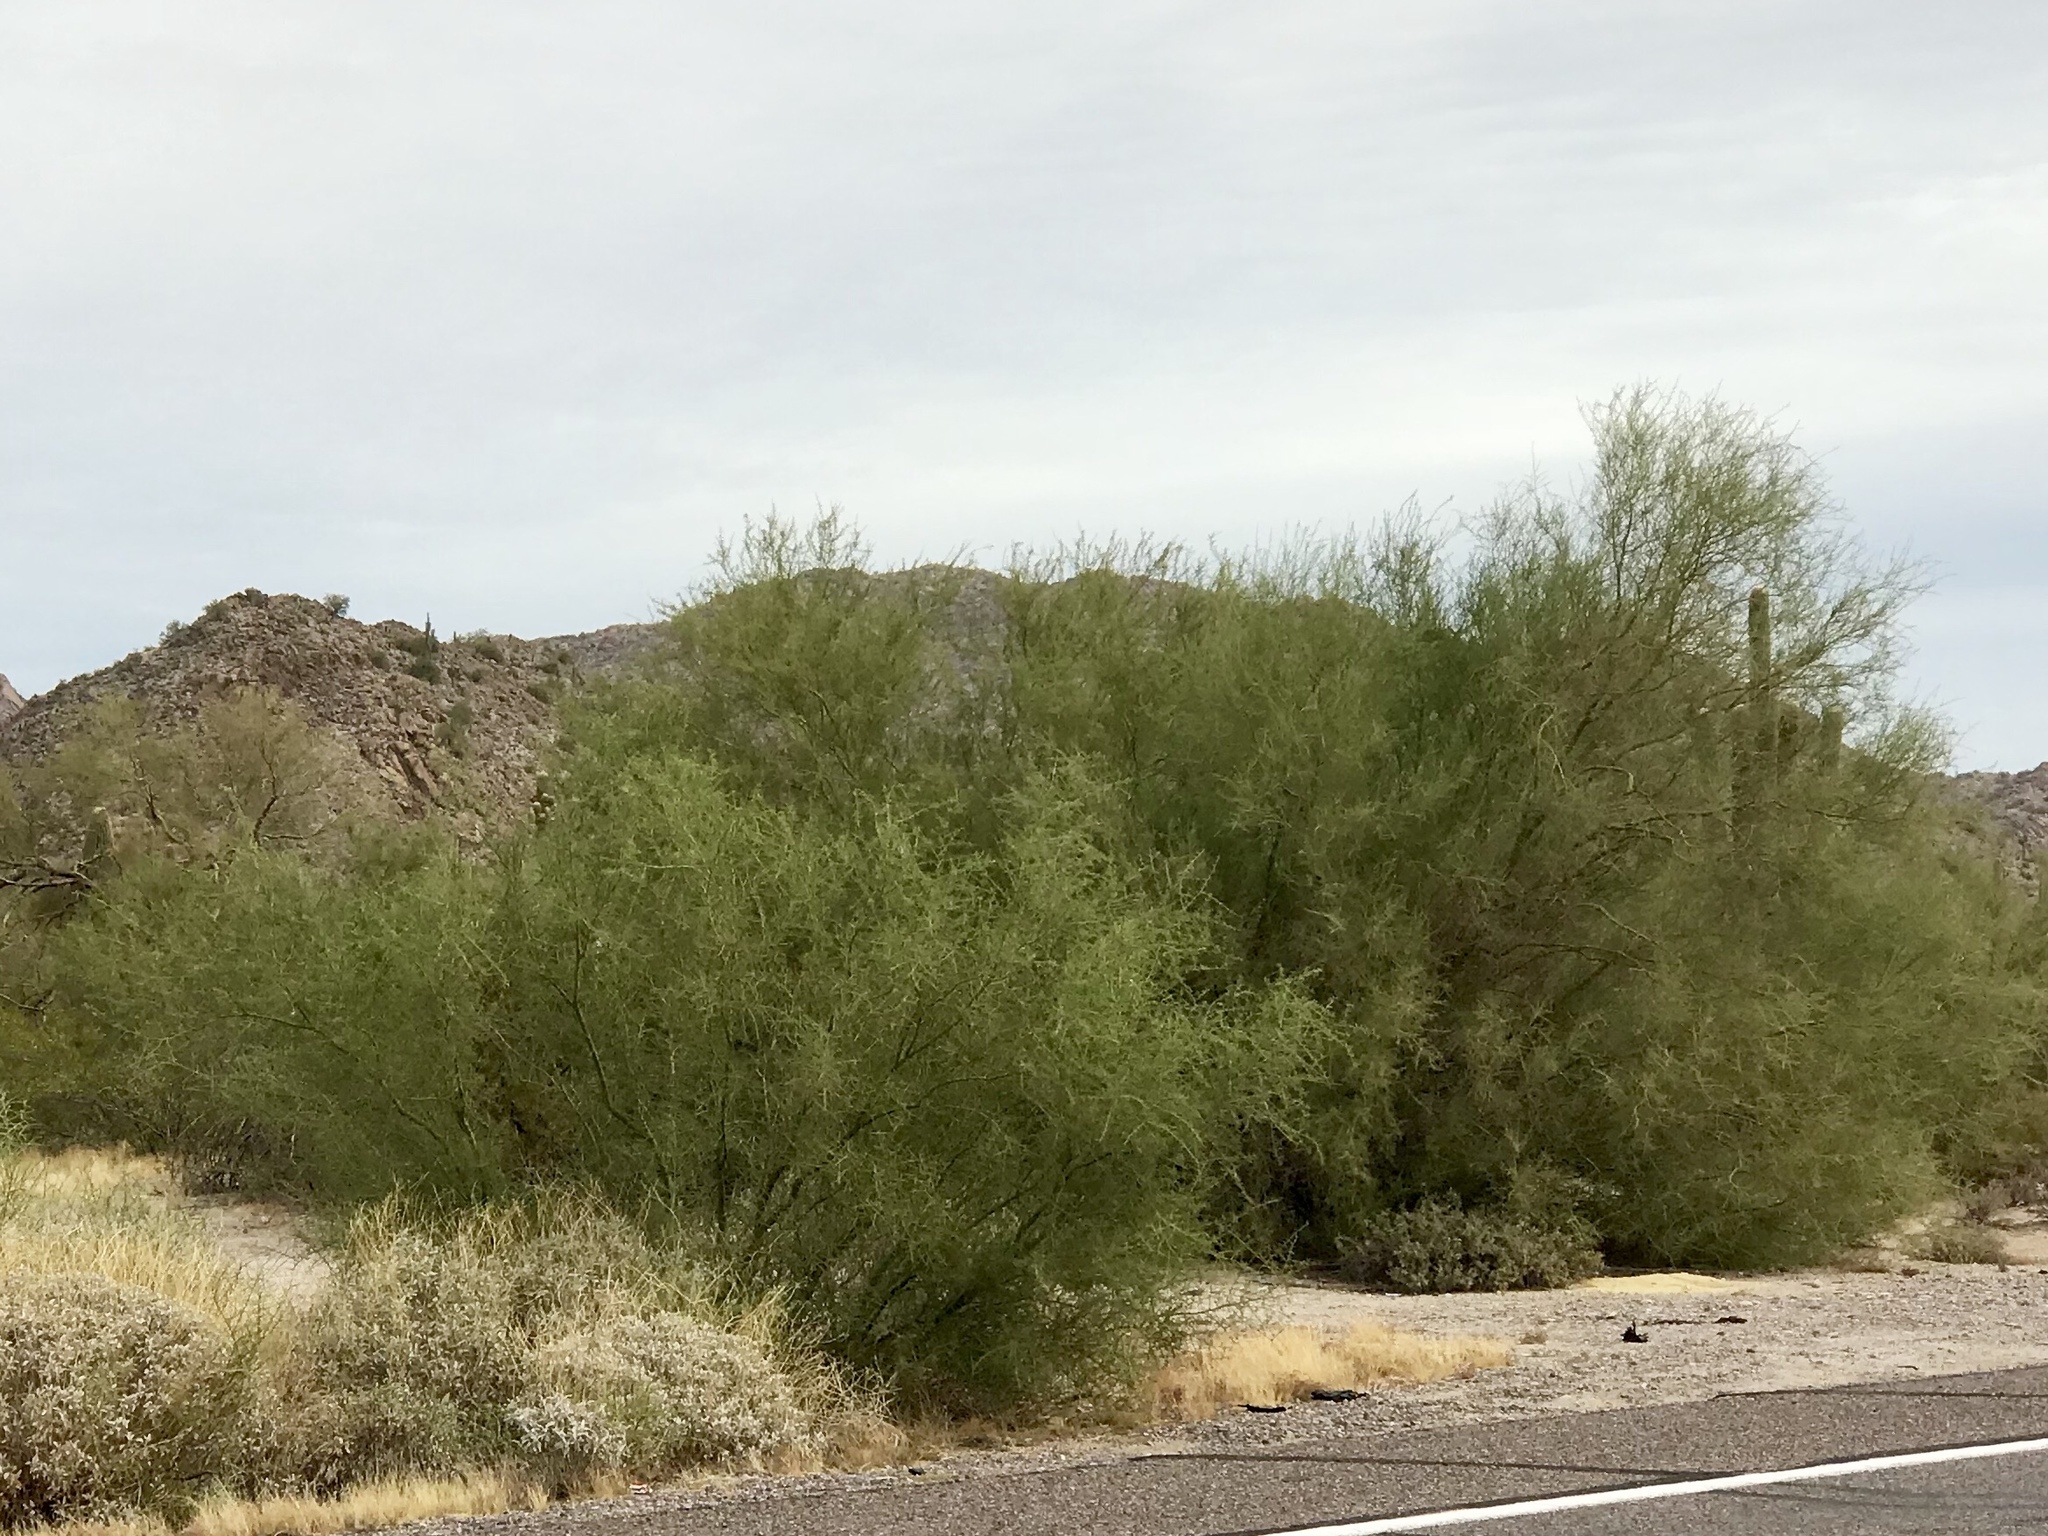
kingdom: Plantae
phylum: Tracheophyta
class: Magnoliopsida
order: Fabales
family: Fabaceae
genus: Parkinsonia
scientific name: Parkinsonia microphylla
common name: Yellow paloverde
